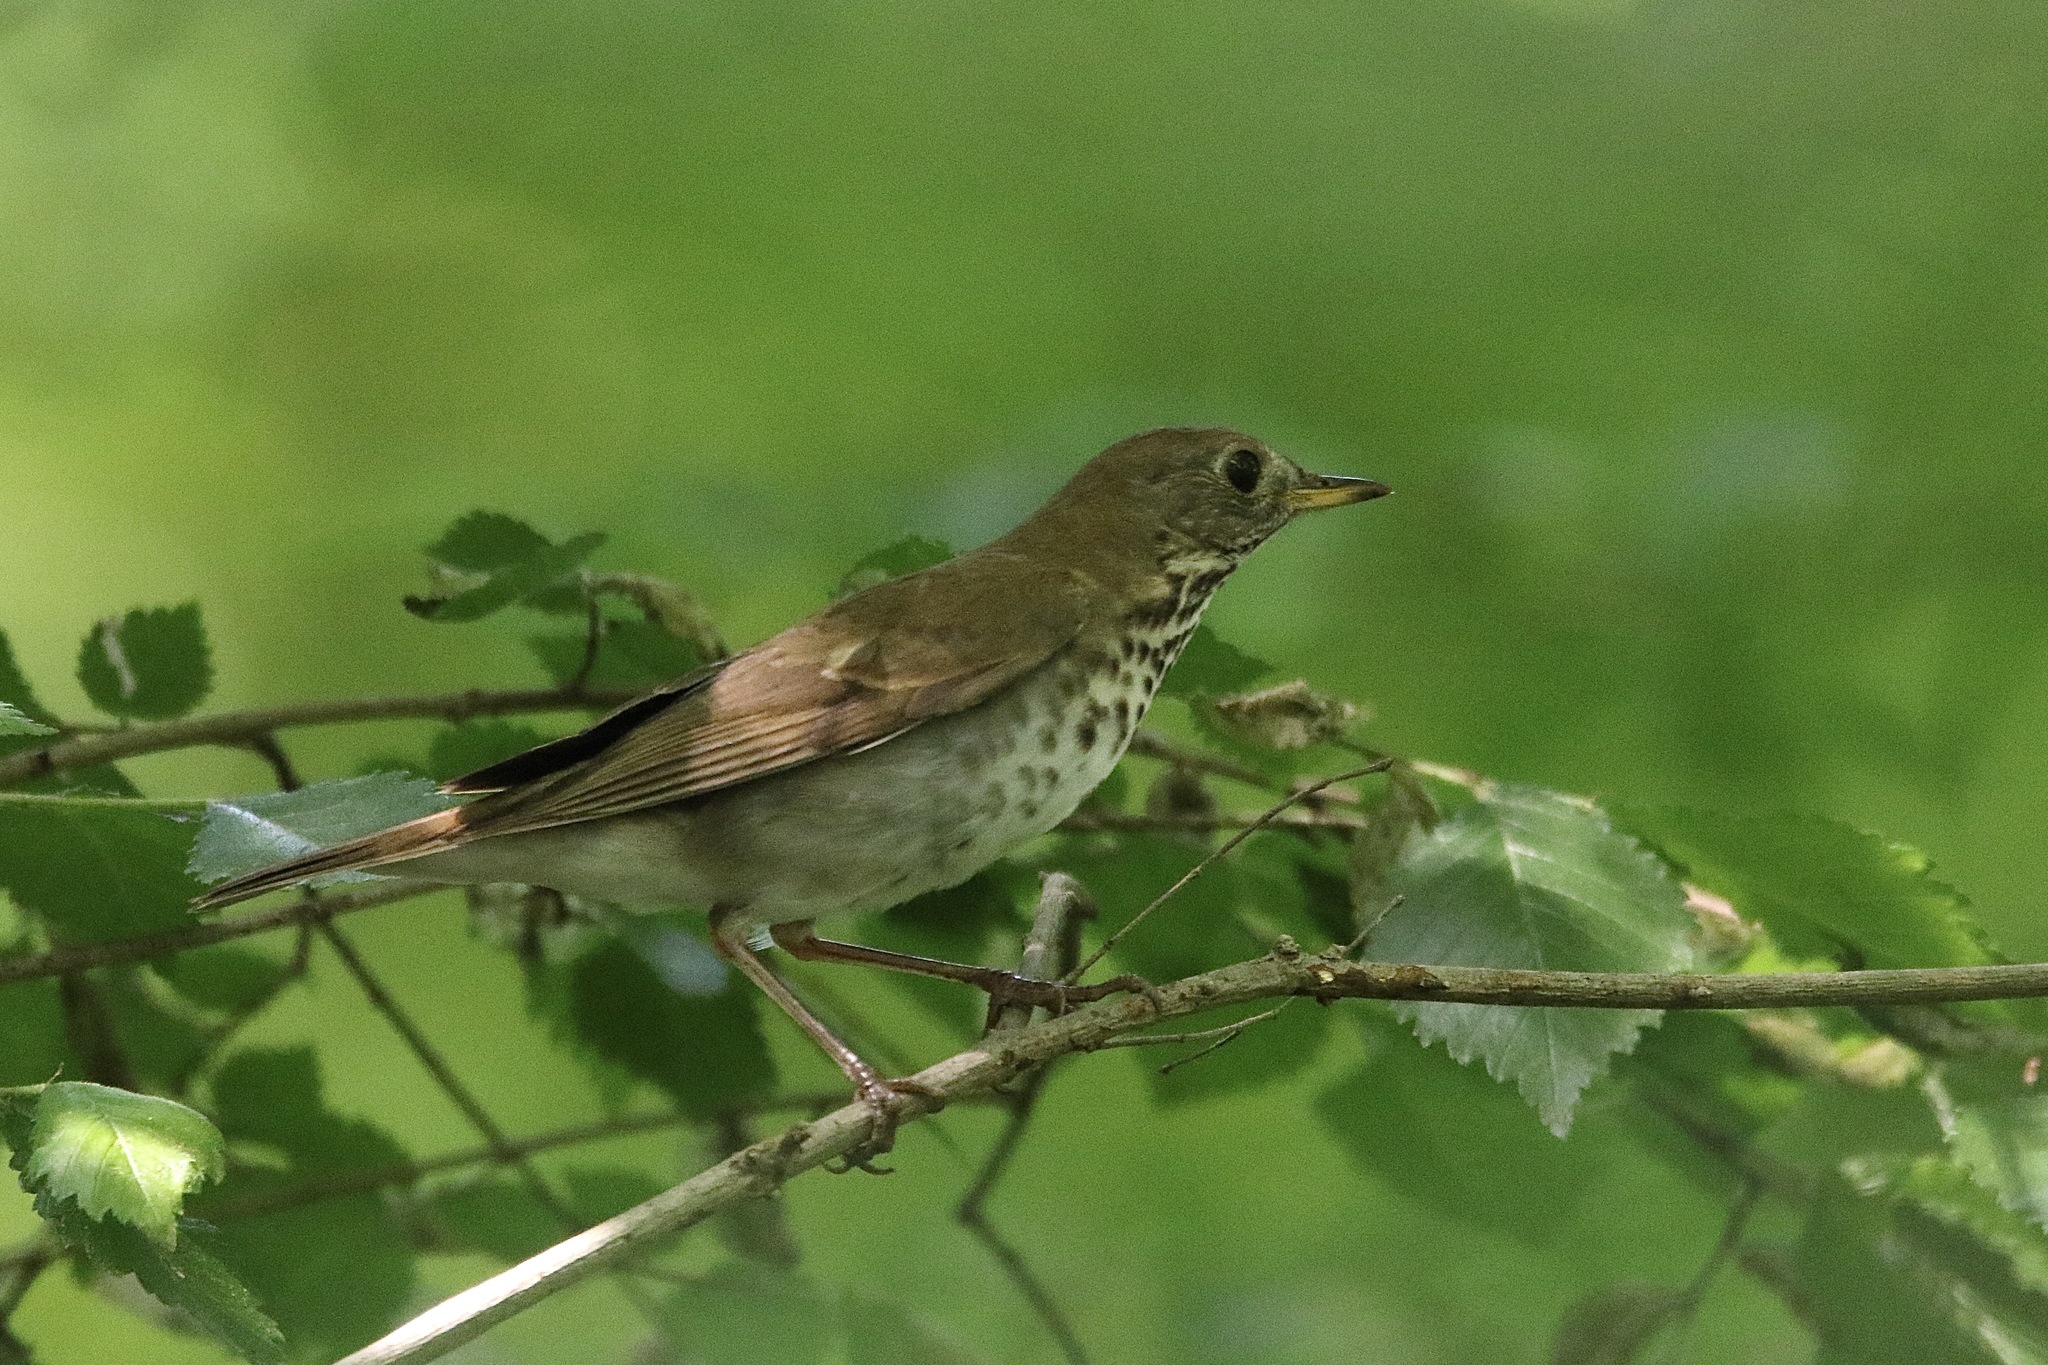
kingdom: Animalia
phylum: Chordata
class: Aves
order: Passeriformes
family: Turdidae
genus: Catharus
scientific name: Catharus bicknelli
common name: Bicknell's thrush
